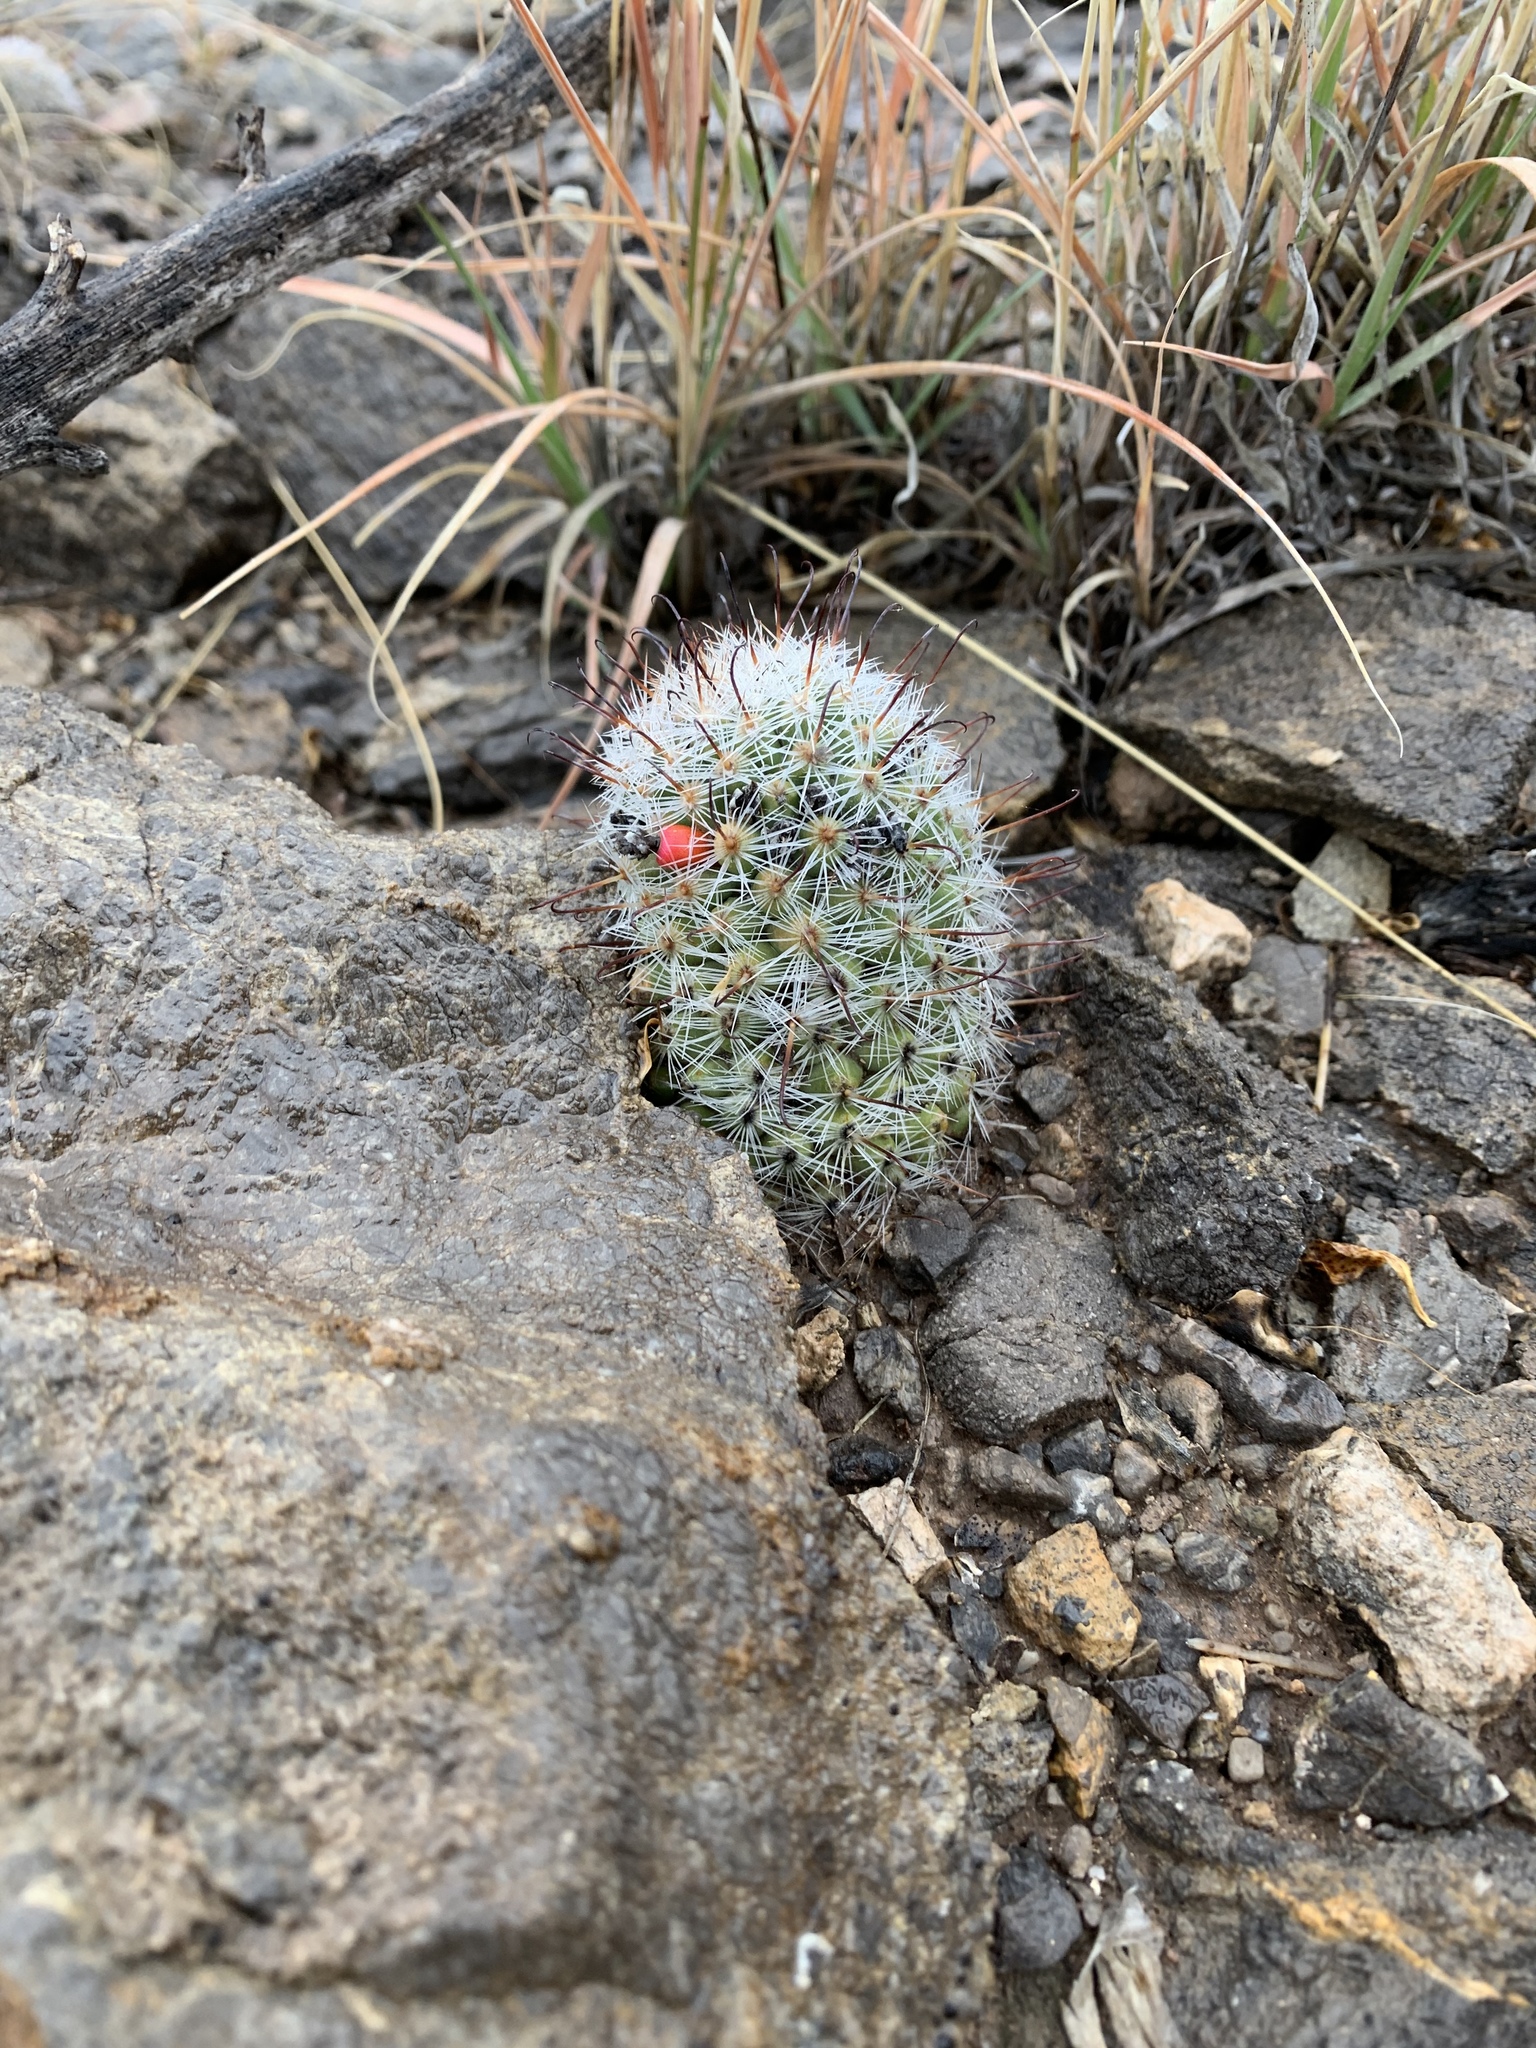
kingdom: Plantae
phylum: Tracheophyta
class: Magnoliopsida
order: Caryophyllales
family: Cactaceae
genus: Cochemiea
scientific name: Cochemiea grahamii
